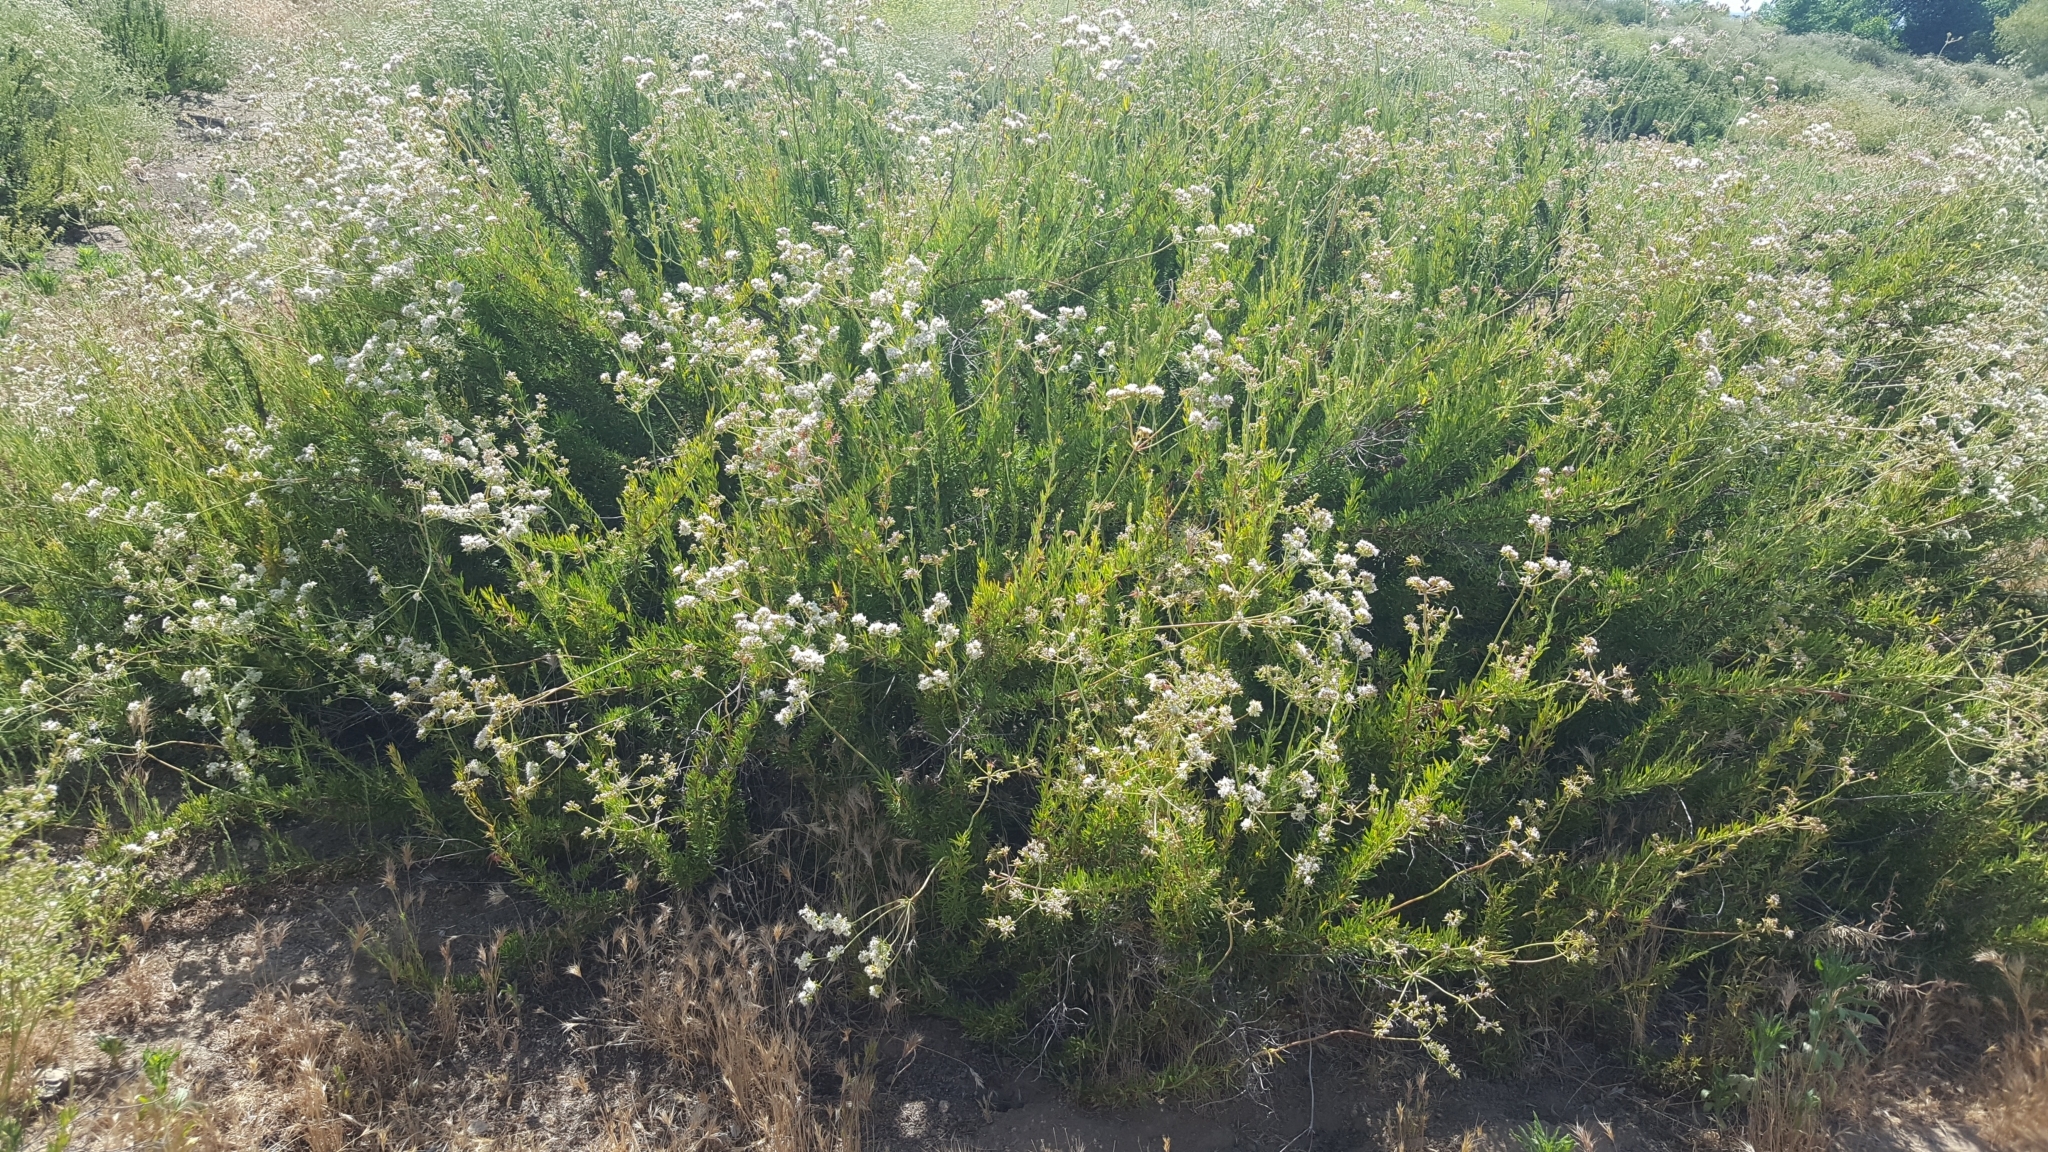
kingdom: Plantae
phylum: Tracheophyta
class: Magnoliopsida
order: Caryophyllales
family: Polygonaceae
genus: Eriogonum
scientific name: Eriogonum fasciculatum
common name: California wild buckwheat
